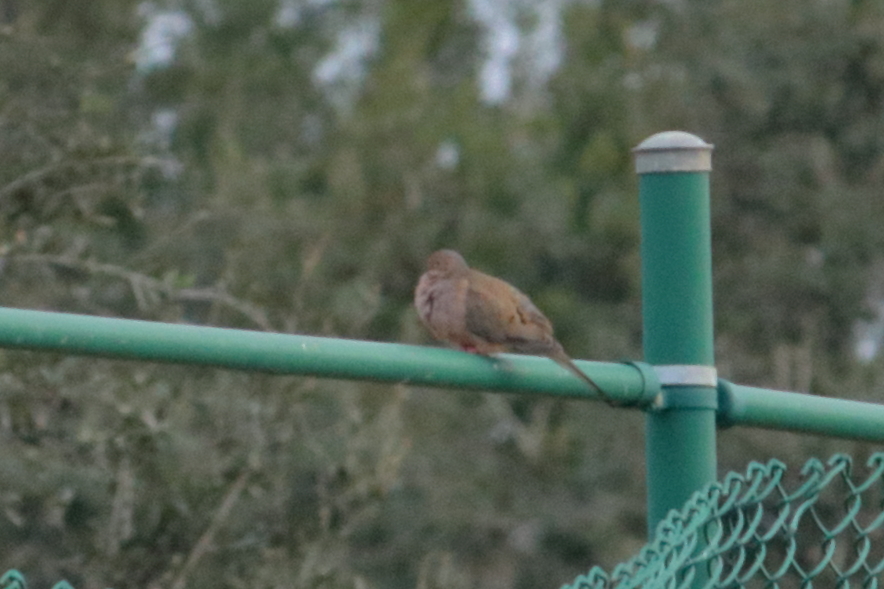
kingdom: Animalia
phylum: Chordata
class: Aves
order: Columbiformes
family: Columbidae
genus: Zenaida
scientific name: Zenaida macroura
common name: Mourning dove
